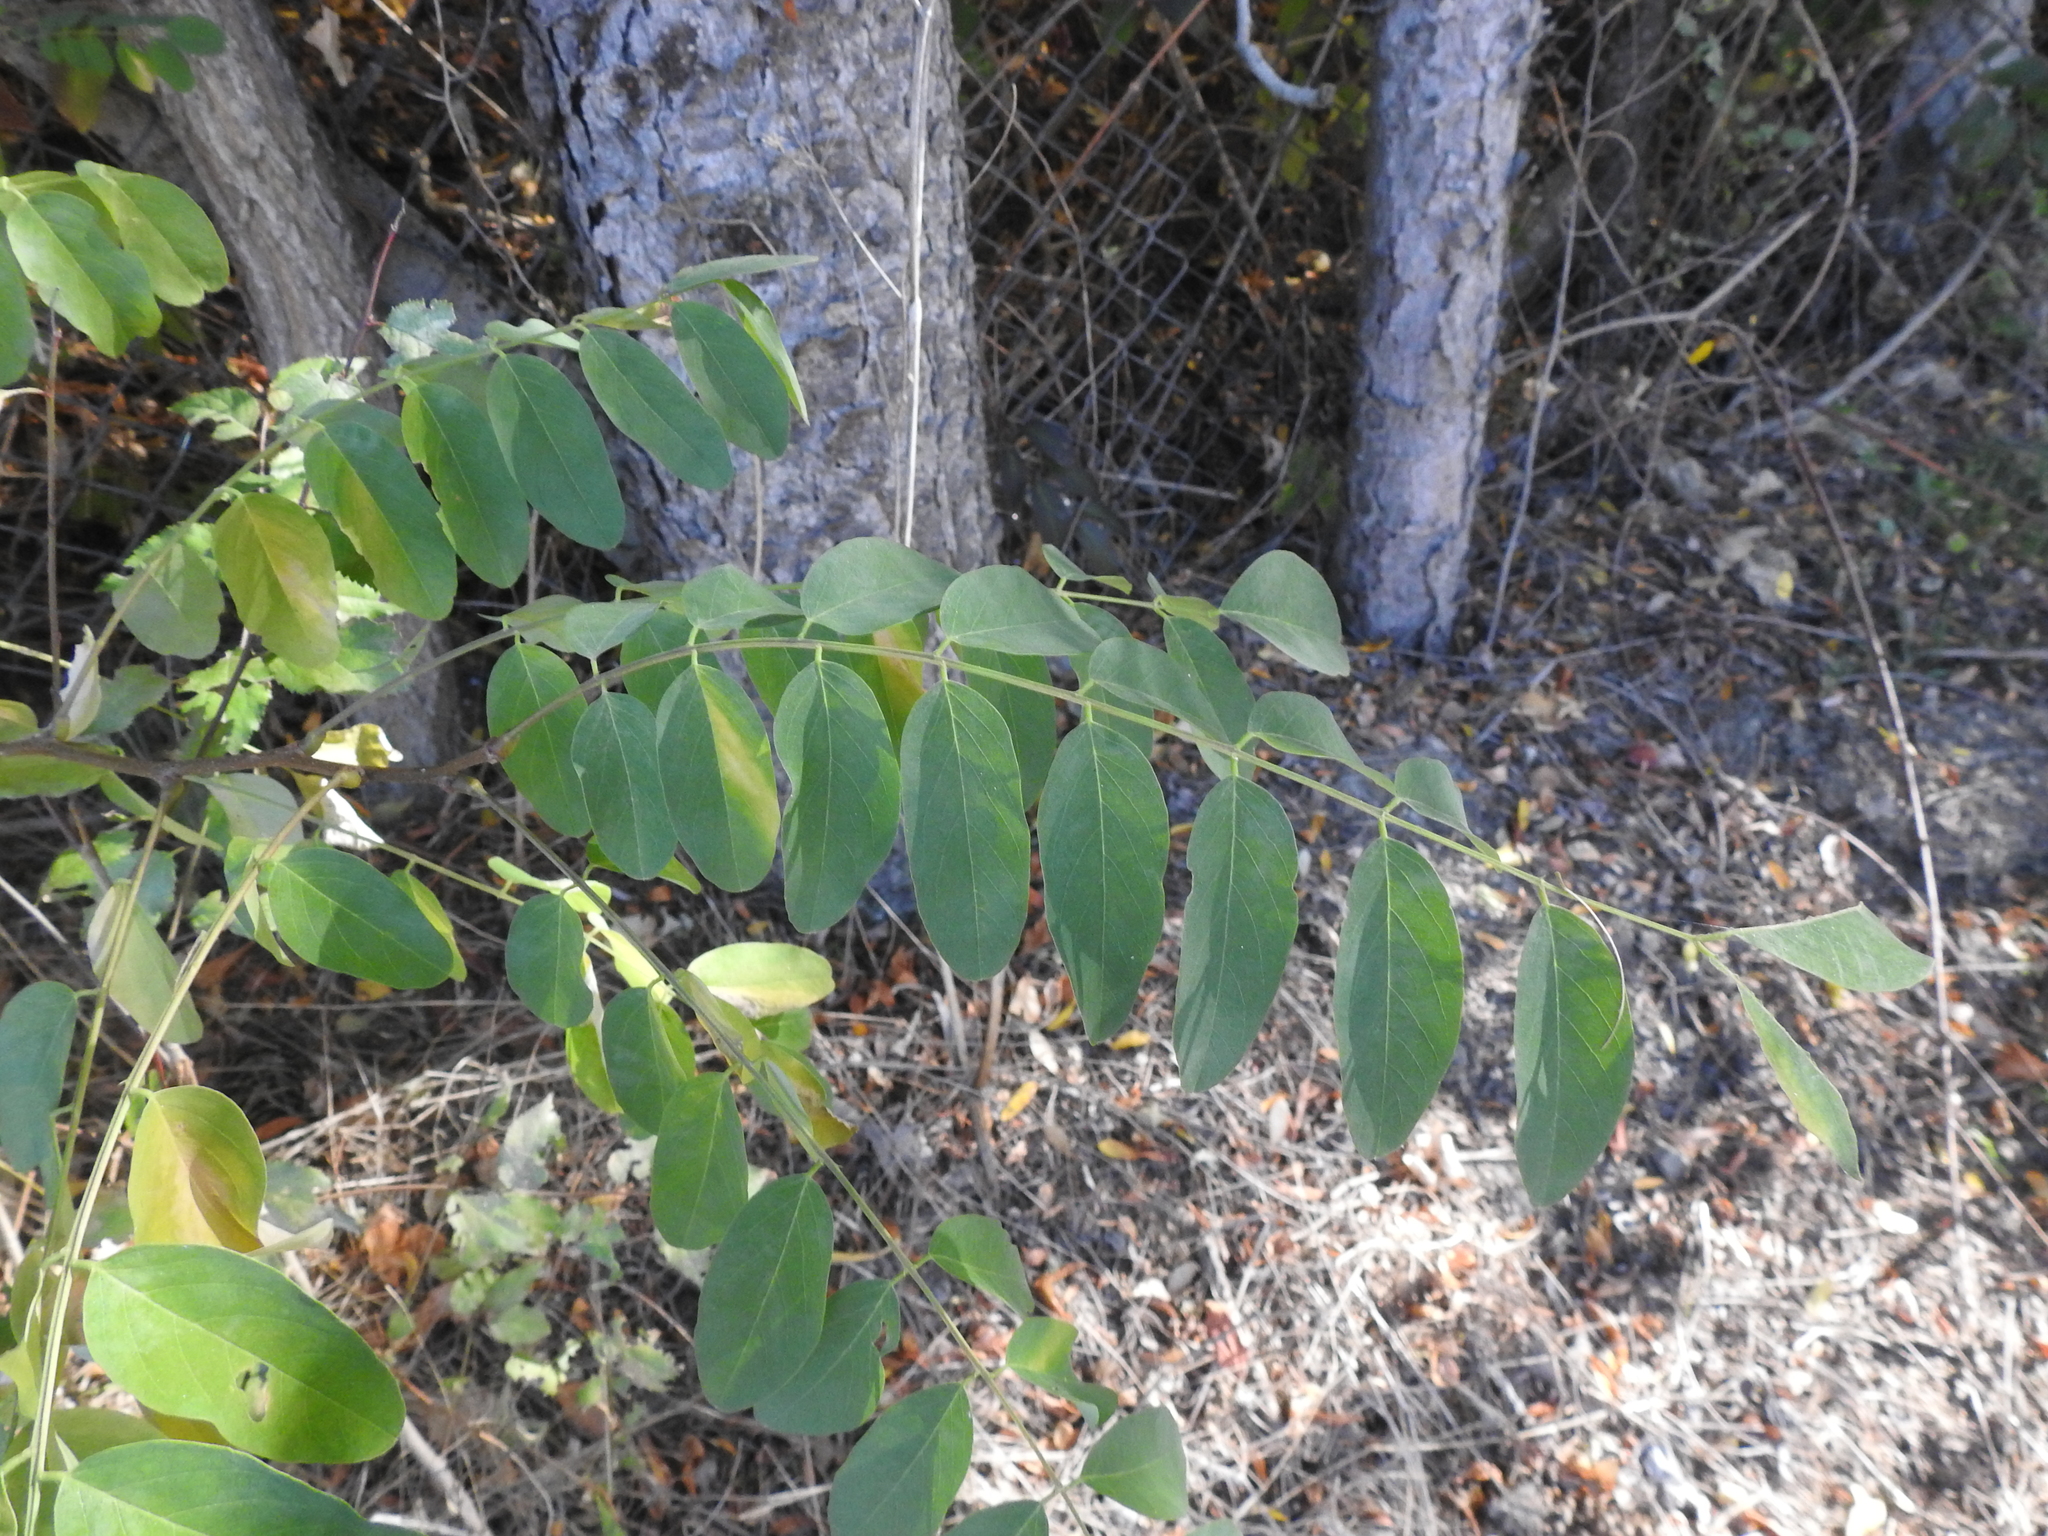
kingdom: Plantae
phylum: Tracheophyta
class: Magnoliopsida
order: Fabales
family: Fabaceae
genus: Robinia
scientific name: Robinia pseudoacacia
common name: Black locust
